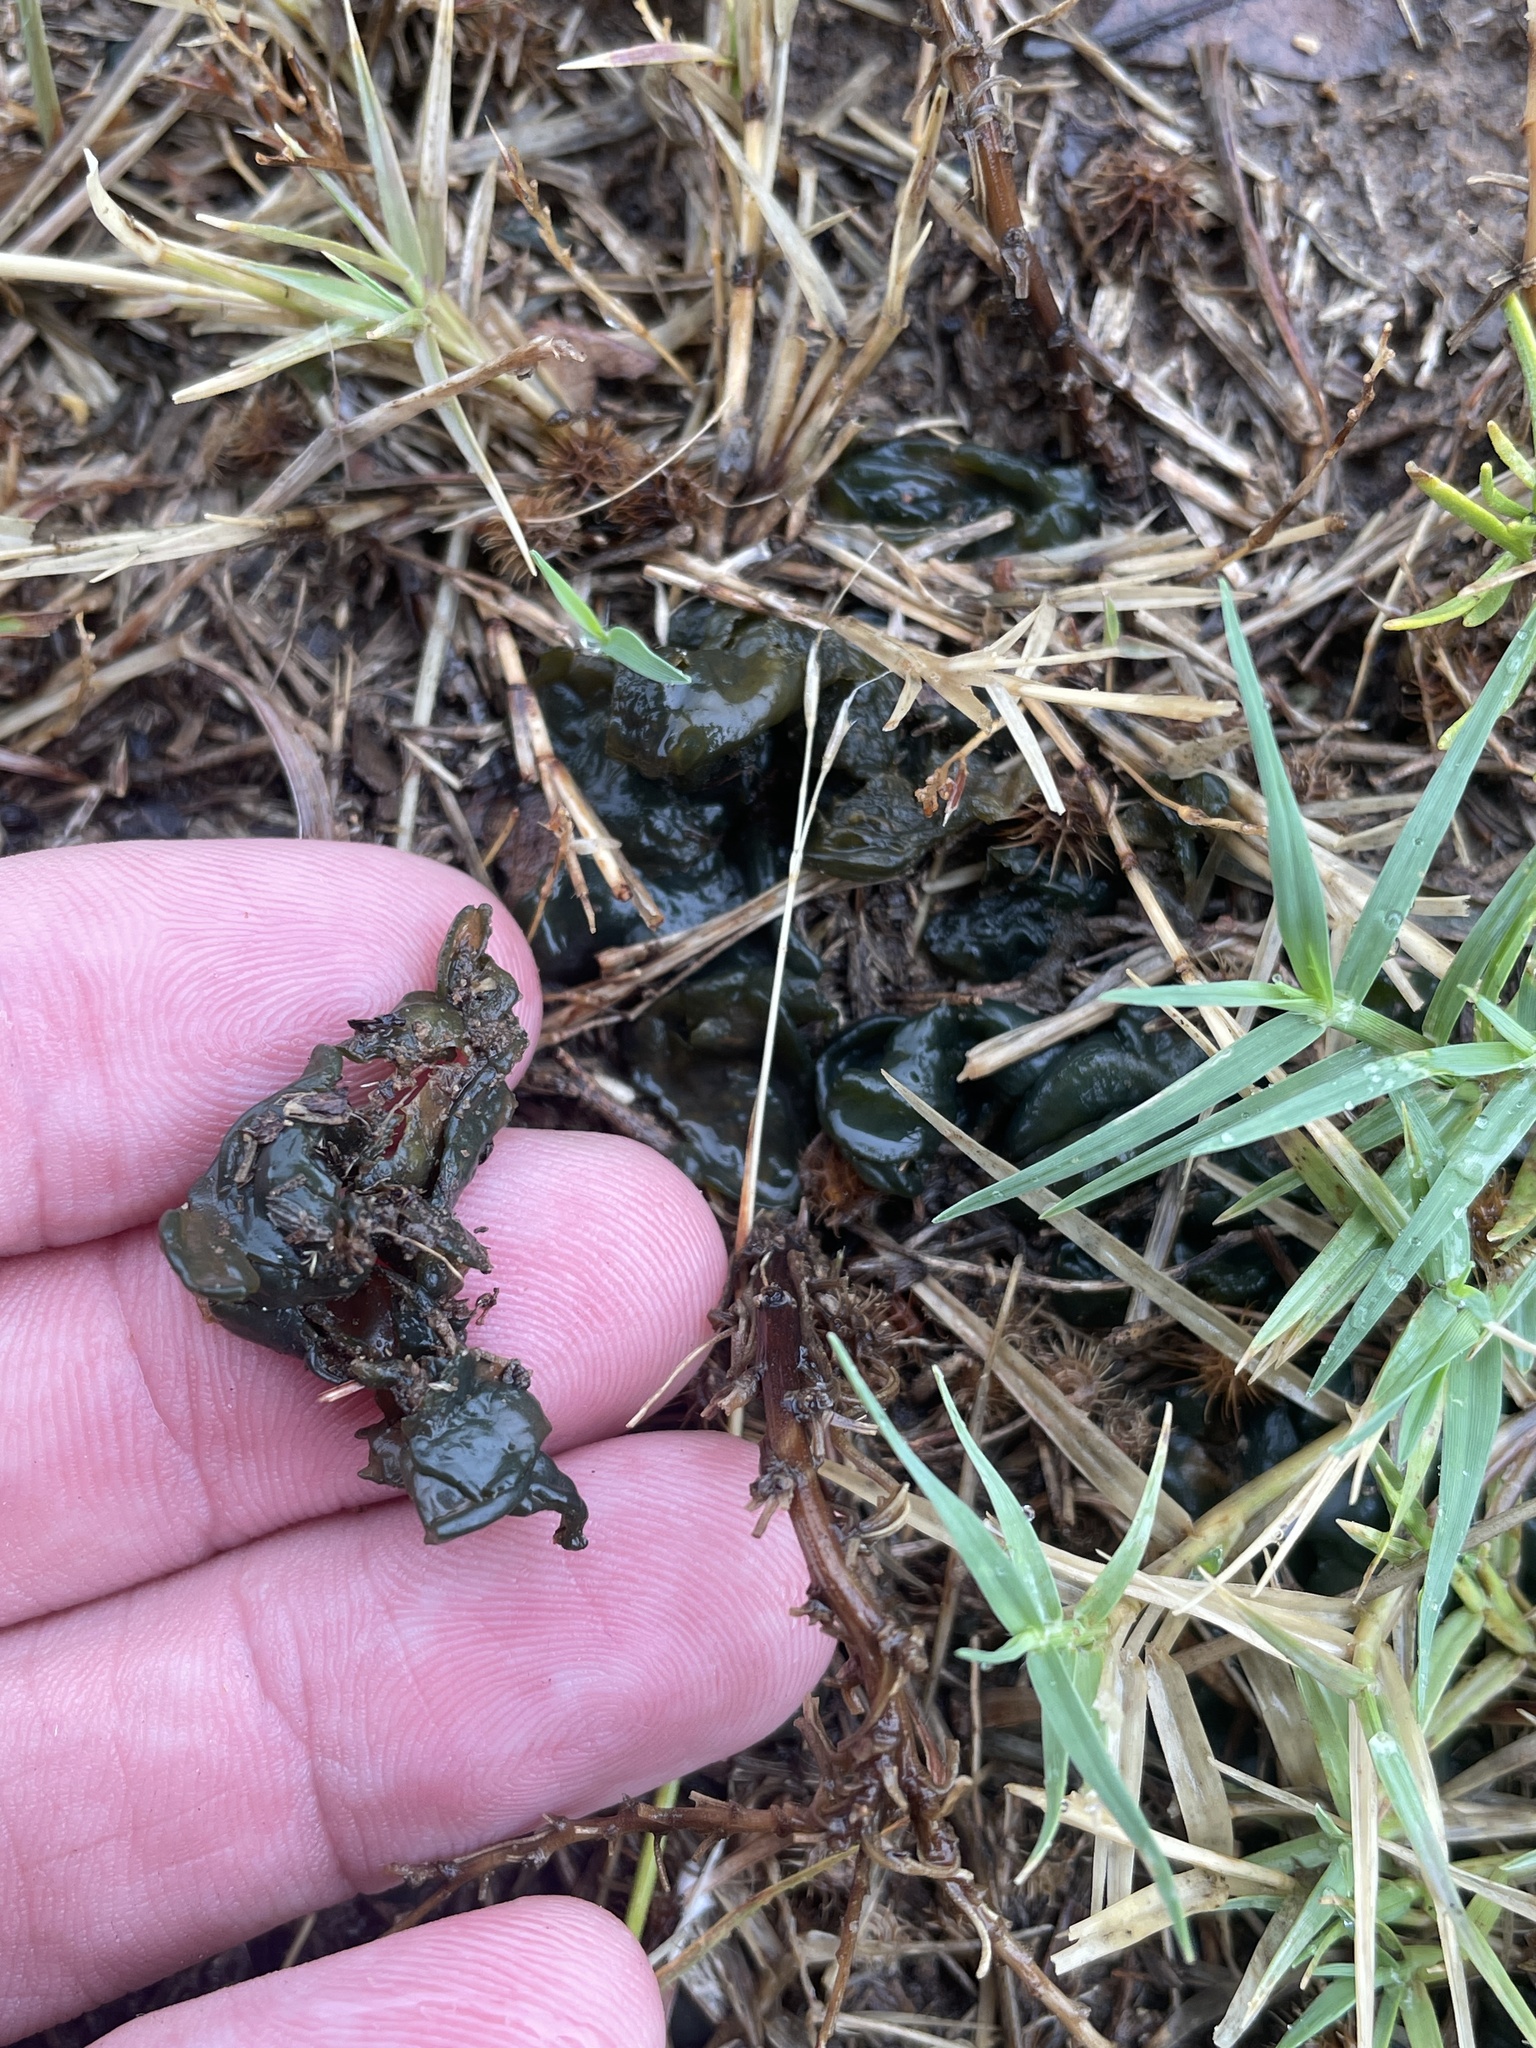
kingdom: Bacteria
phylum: Cyanobacteria
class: Cyanobacteriia
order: Cyanobacteriales
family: Nostocaceae
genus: Nostoc
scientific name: Nostoc commune
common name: Star jelly
